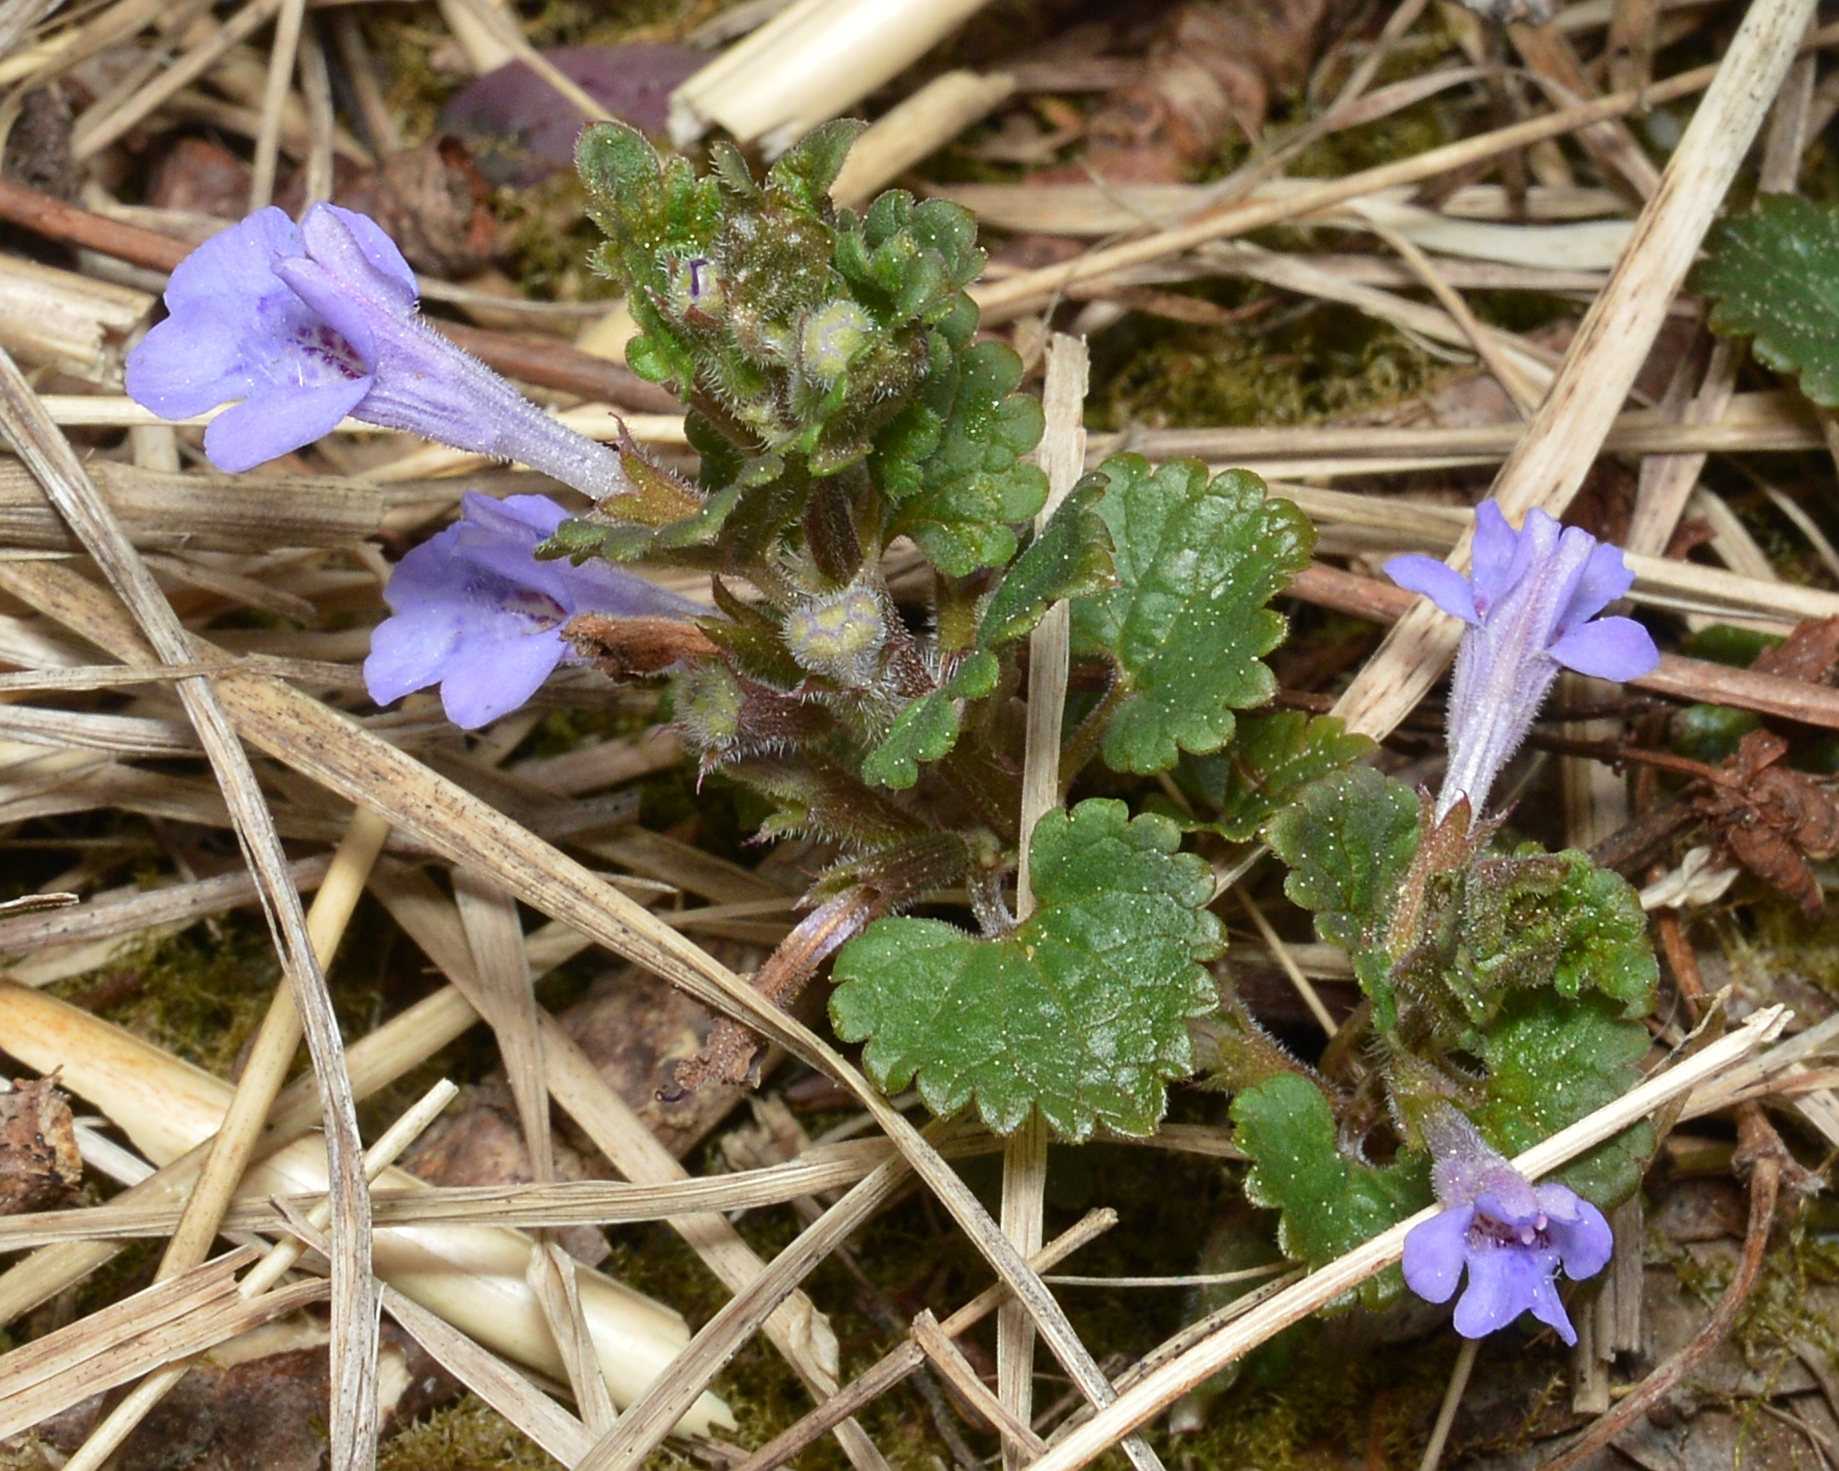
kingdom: Plantae
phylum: Tracheophyta
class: Magnoliopsida
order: Lamiales
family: Lamiaceae
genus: Glechoma
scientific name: Glechoma hederacea
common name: Ground ivy
